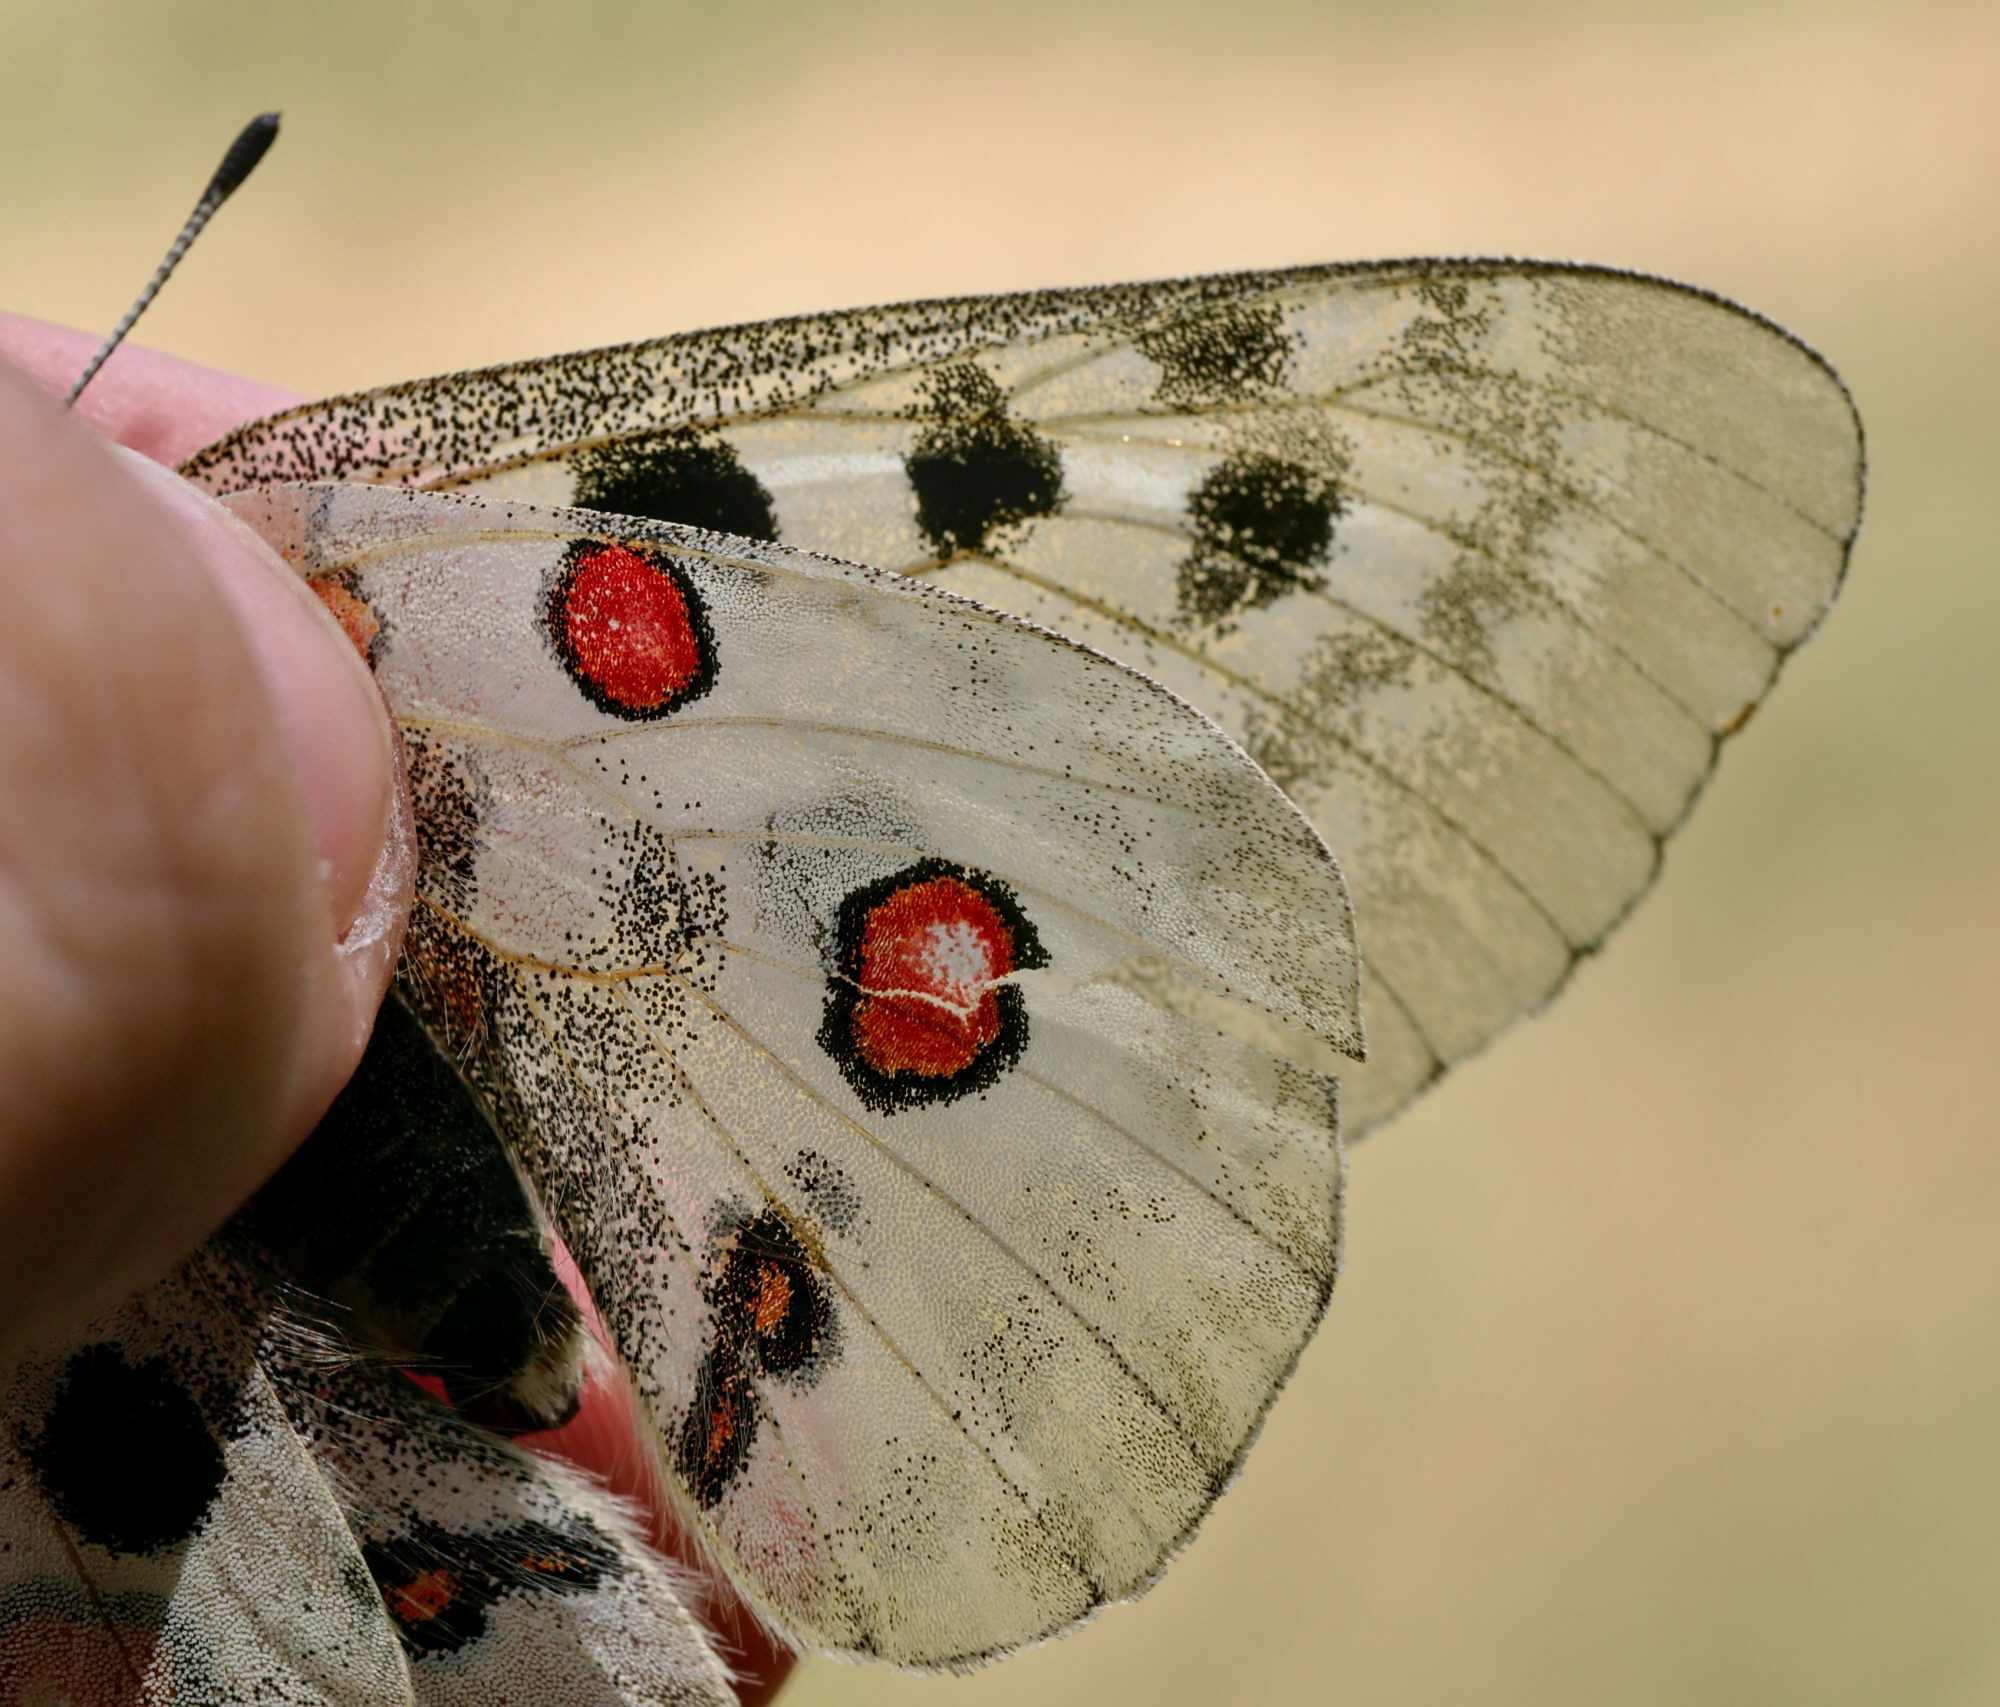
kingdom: Animalia
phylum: Arthropoda
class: Insecta
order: Lepidoptera
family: Papilionidae
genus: Parnassius
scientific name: Parnassius apollo
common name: Apollo
